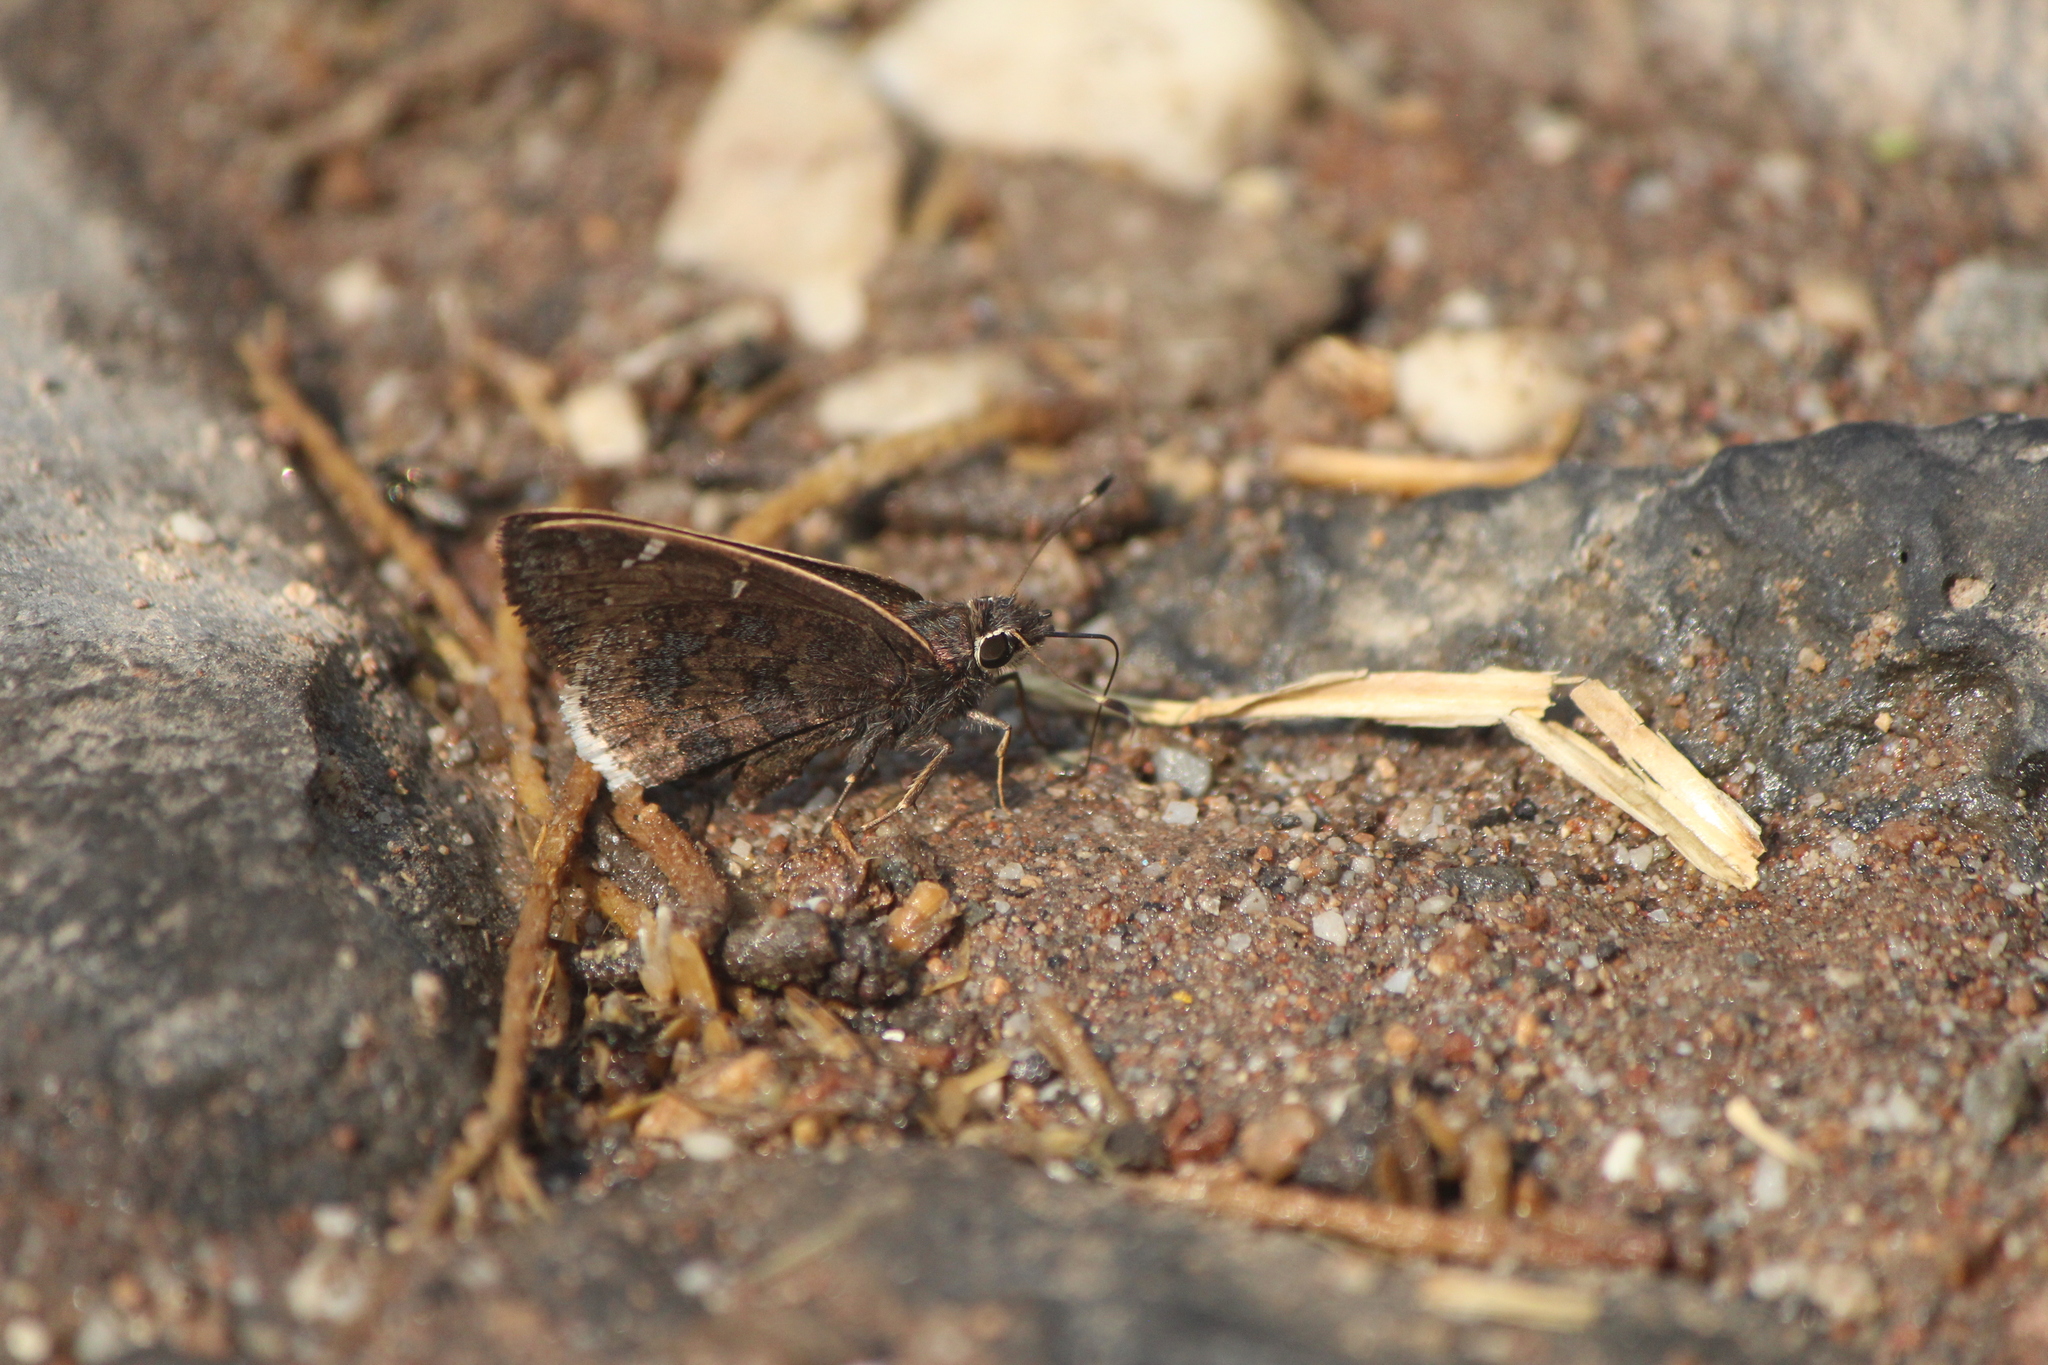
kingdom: Animalia
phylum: Arthropoda
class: Insecta
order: Lepidoptera
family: Hesperiidae
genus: Caicella
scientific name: Caicella caicus
